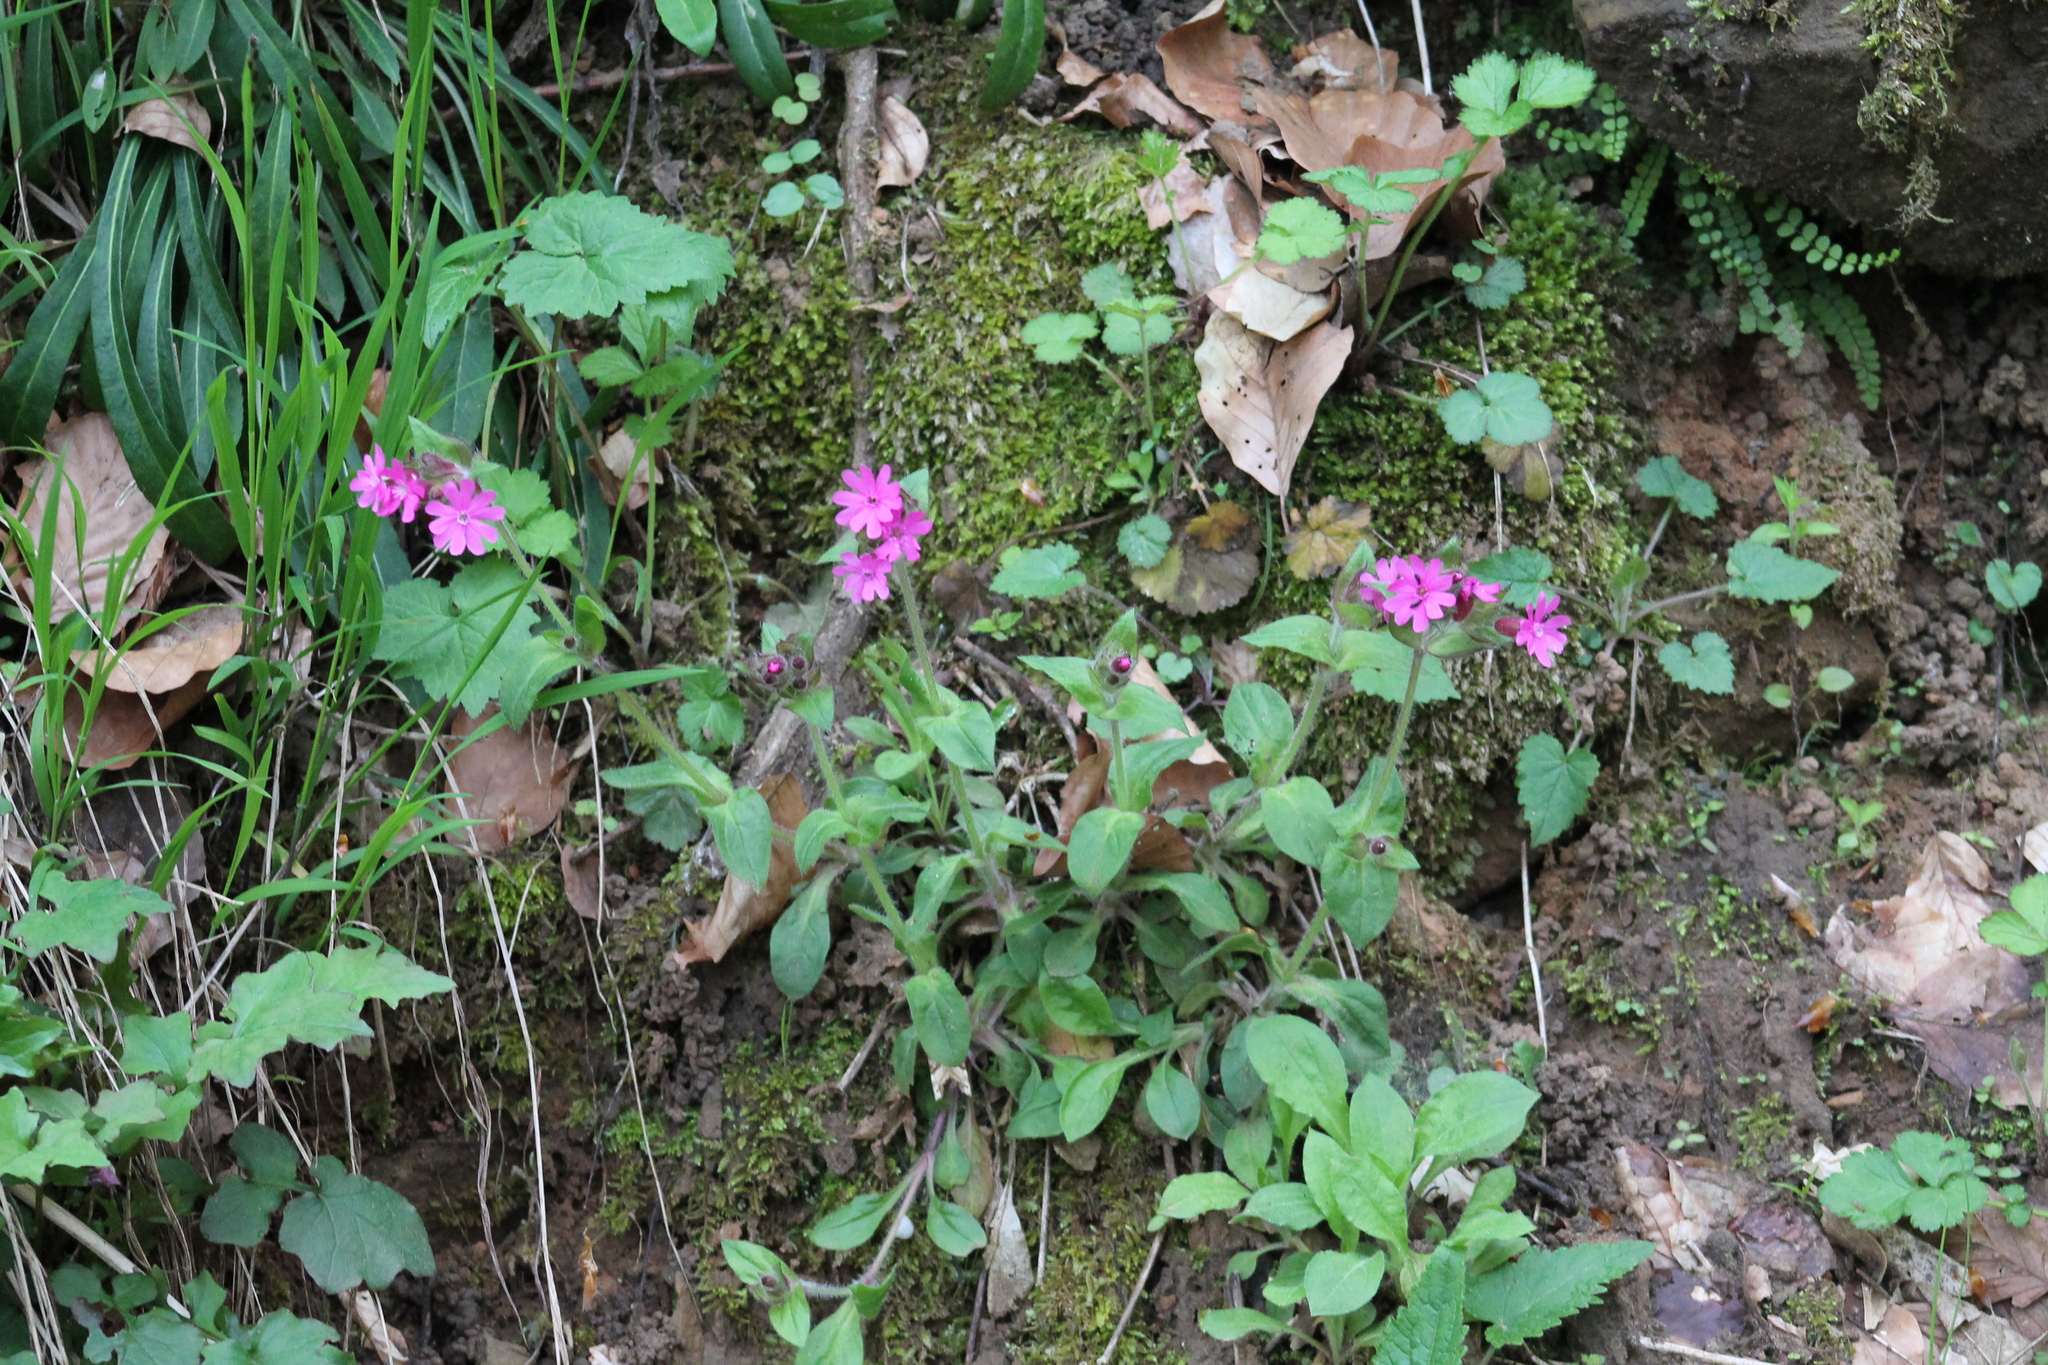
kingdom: Plantae
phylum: Tracheophyta
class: Magnoliopsida
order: Caryophyllales
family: Caryophyllaceae
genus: Silene
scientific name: Silene dioica
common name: Red campion
